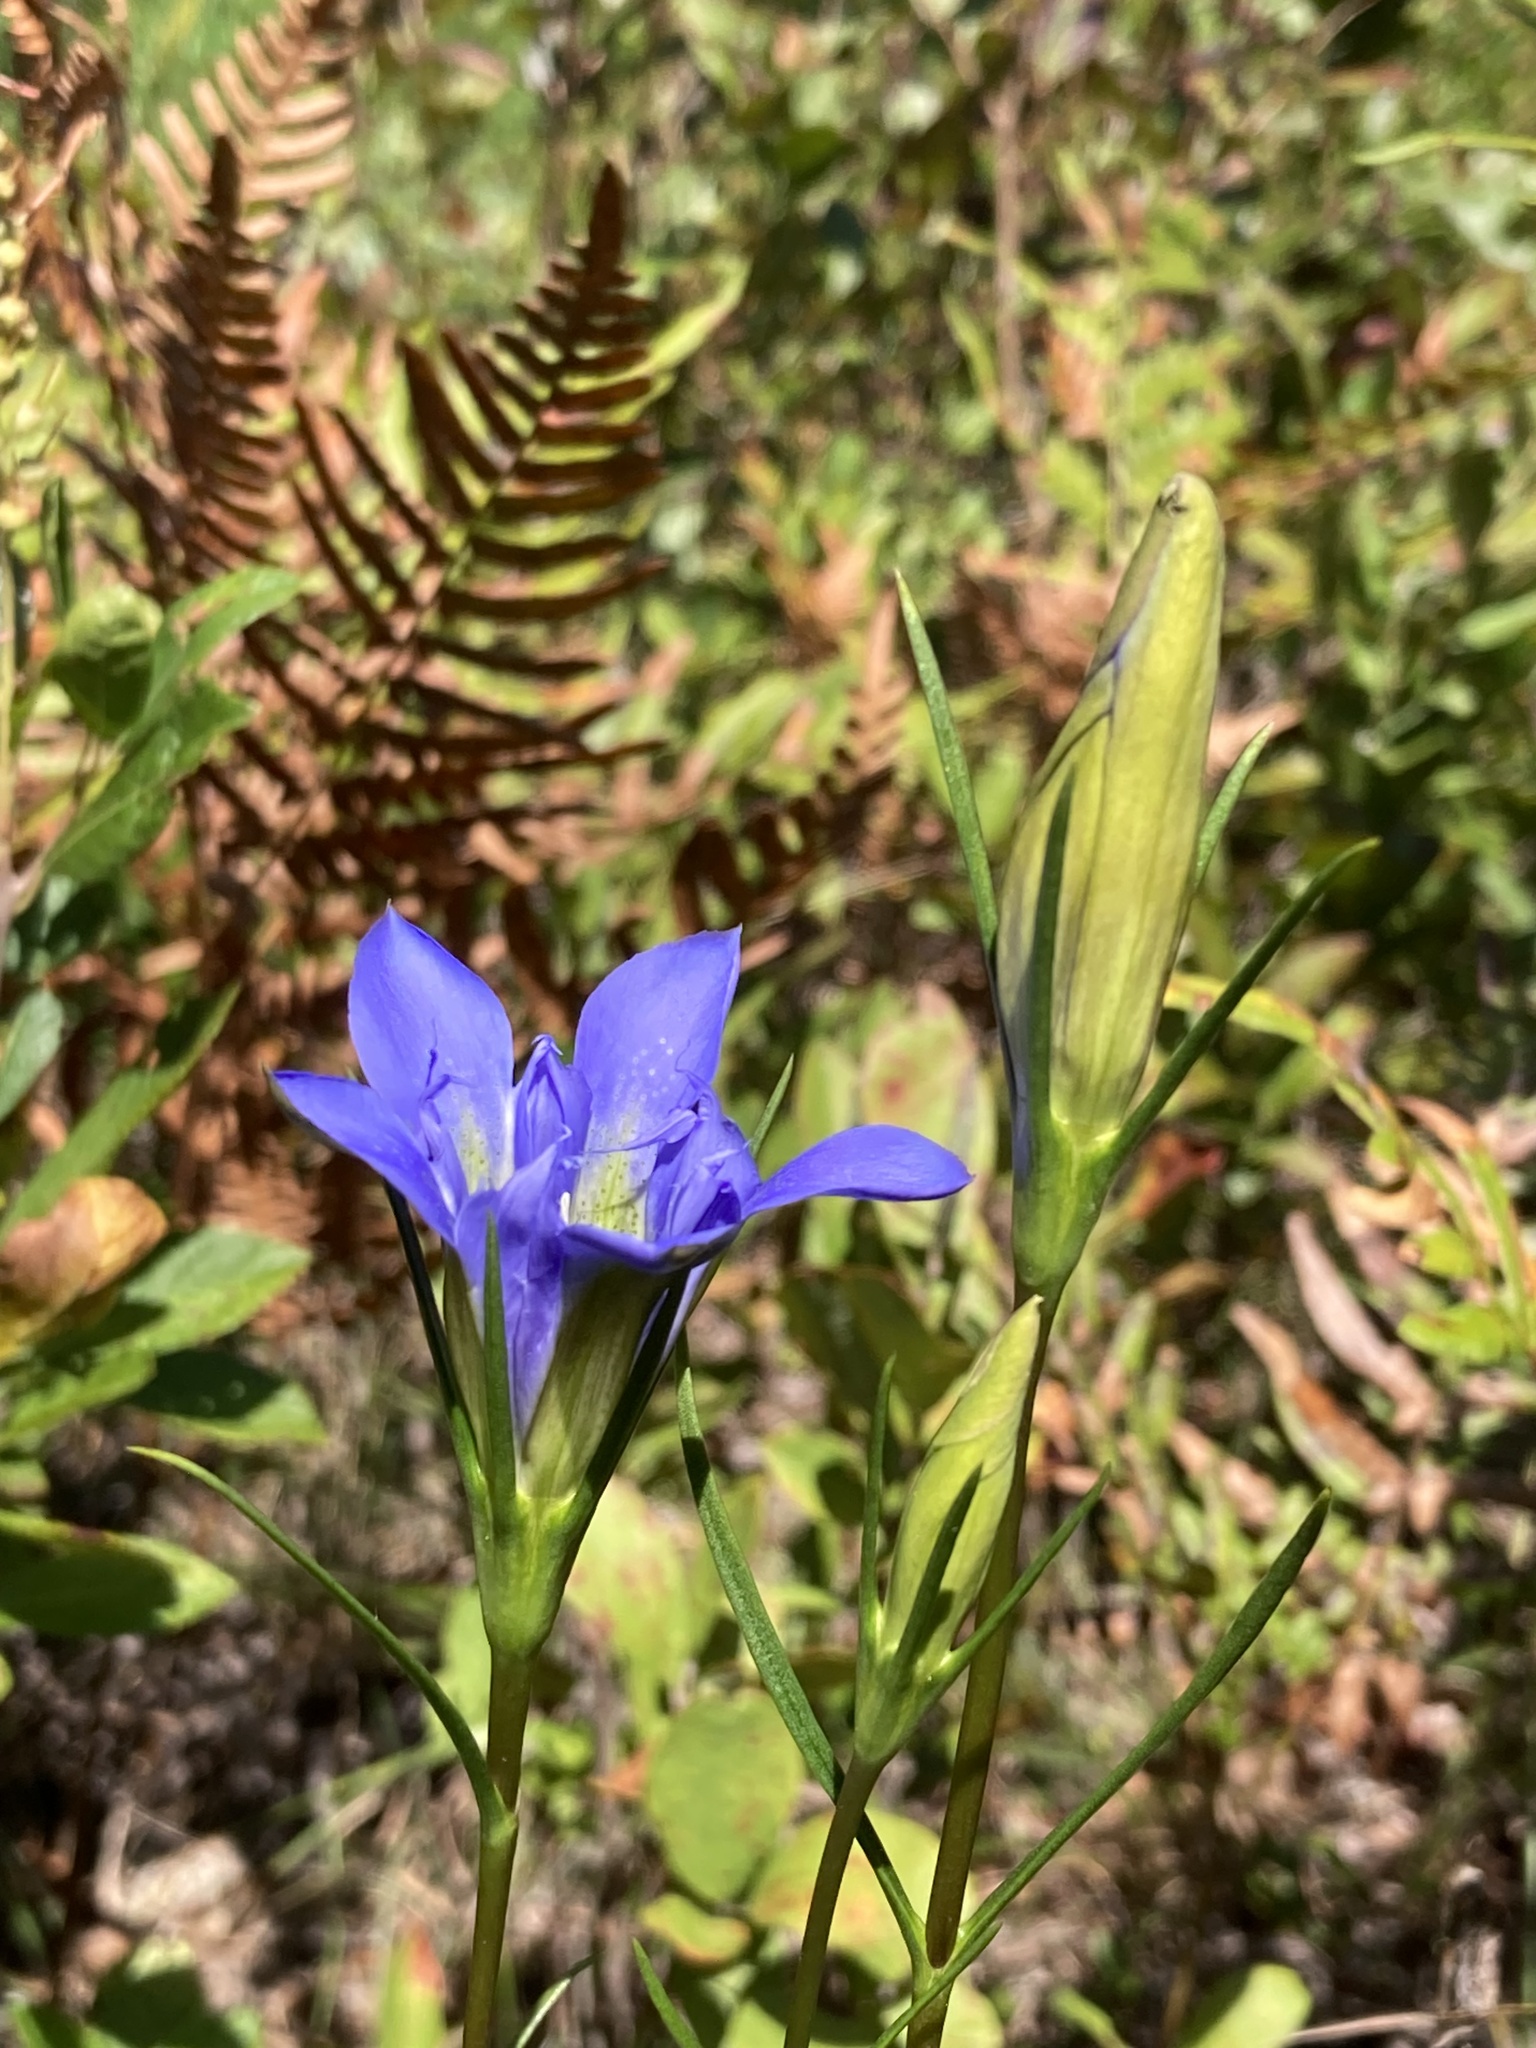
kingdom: Plantae
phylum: Tracheophyta
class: Magnoliopsida
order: Gentianales
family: Gentianaceae
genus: Gentiana
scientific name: Gentiana autumnalis
